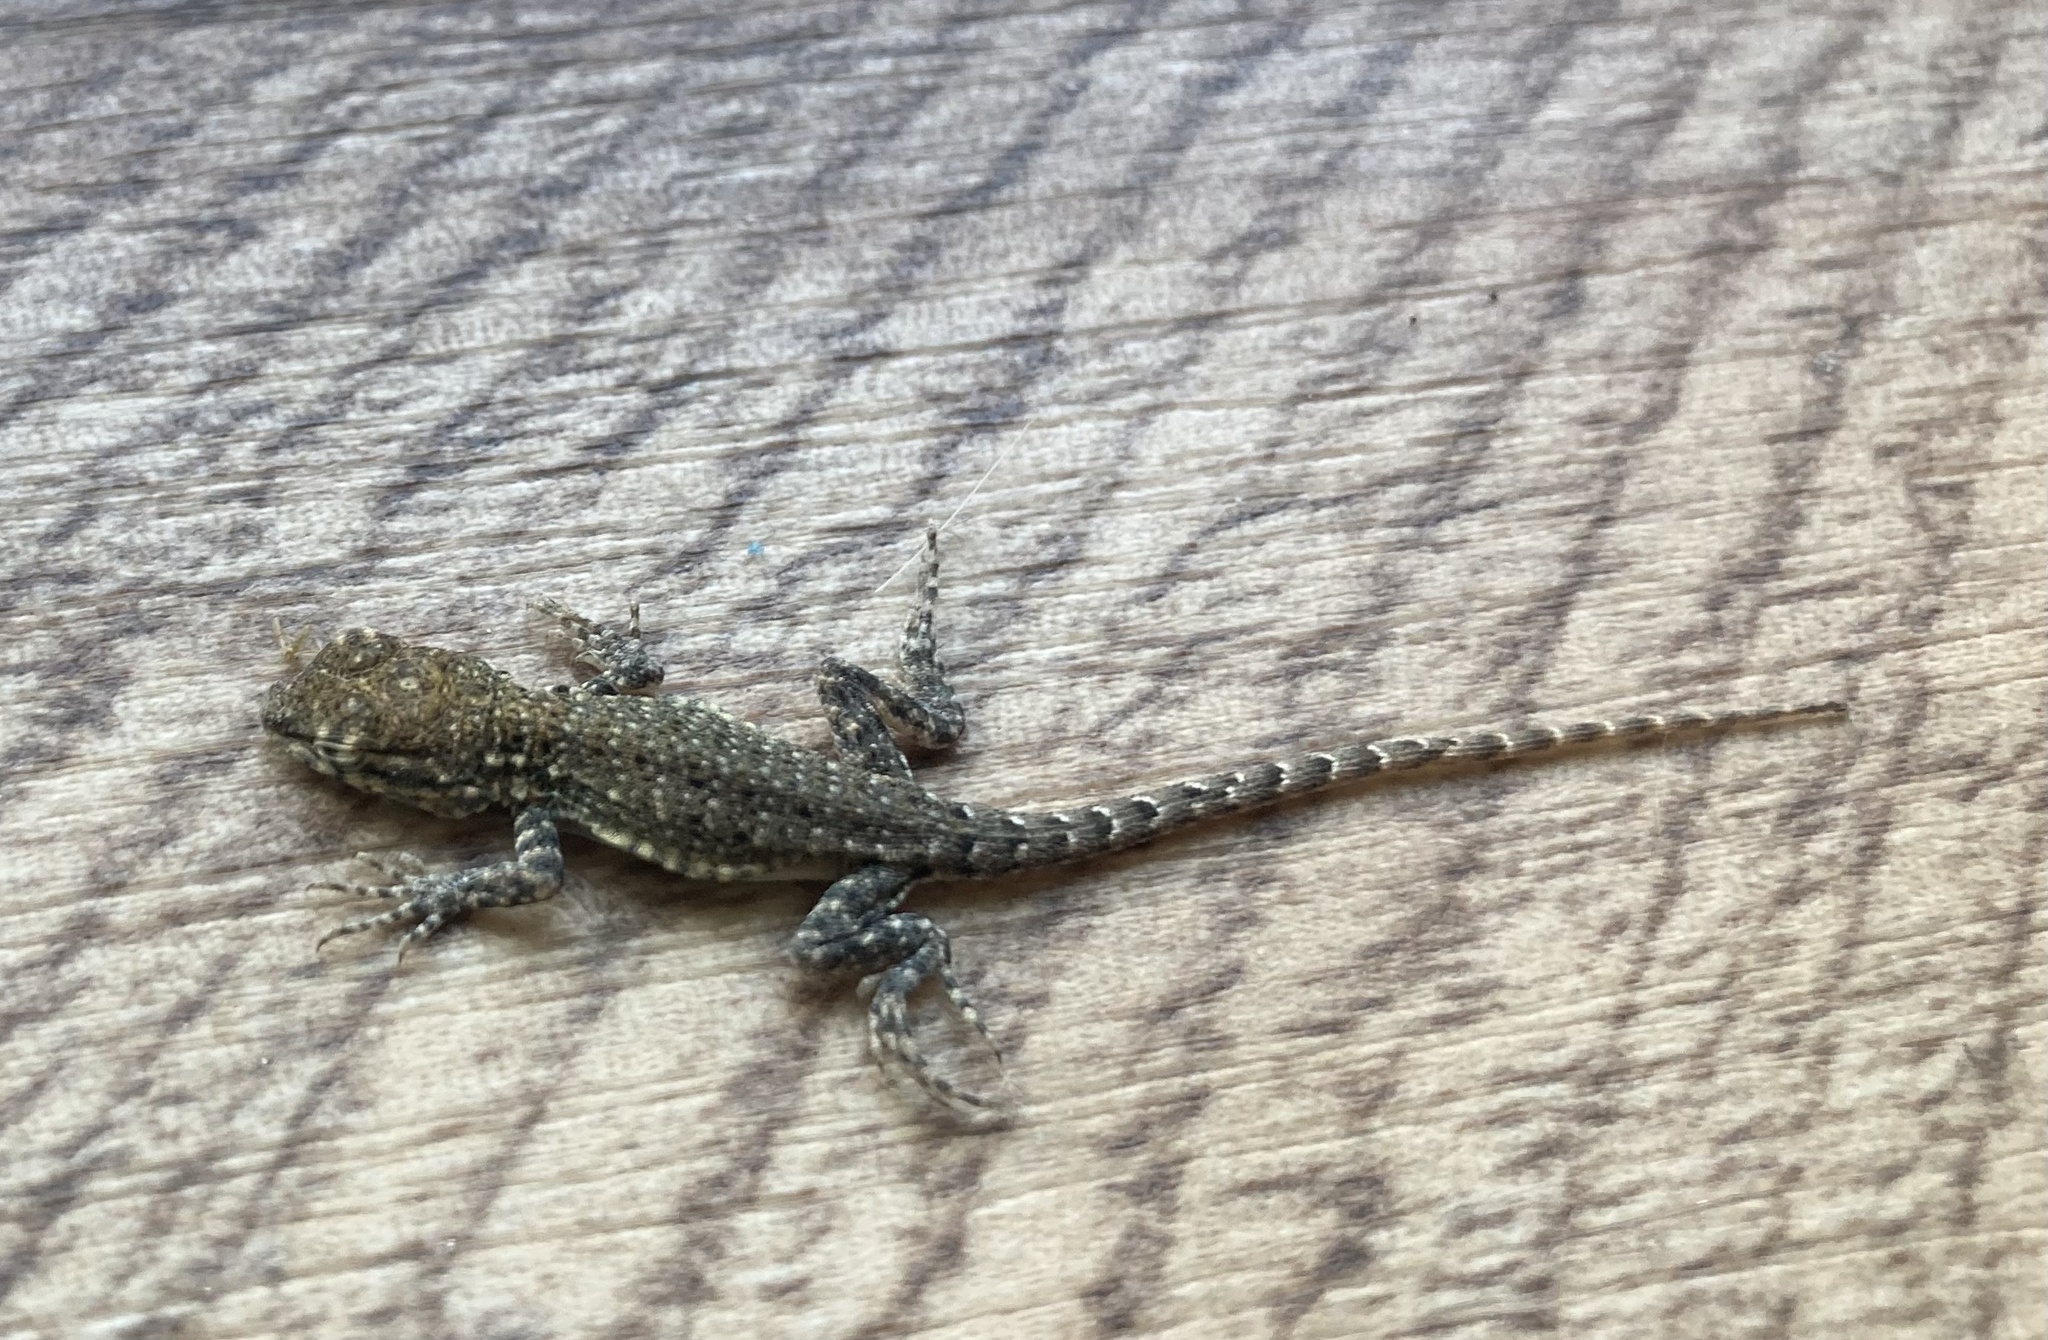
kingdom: Animalia
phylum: Chordata
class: Squamata
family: Phrynosomatidae
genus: Uta
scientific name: Uta stansburiana
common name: Side-blotched lizard
